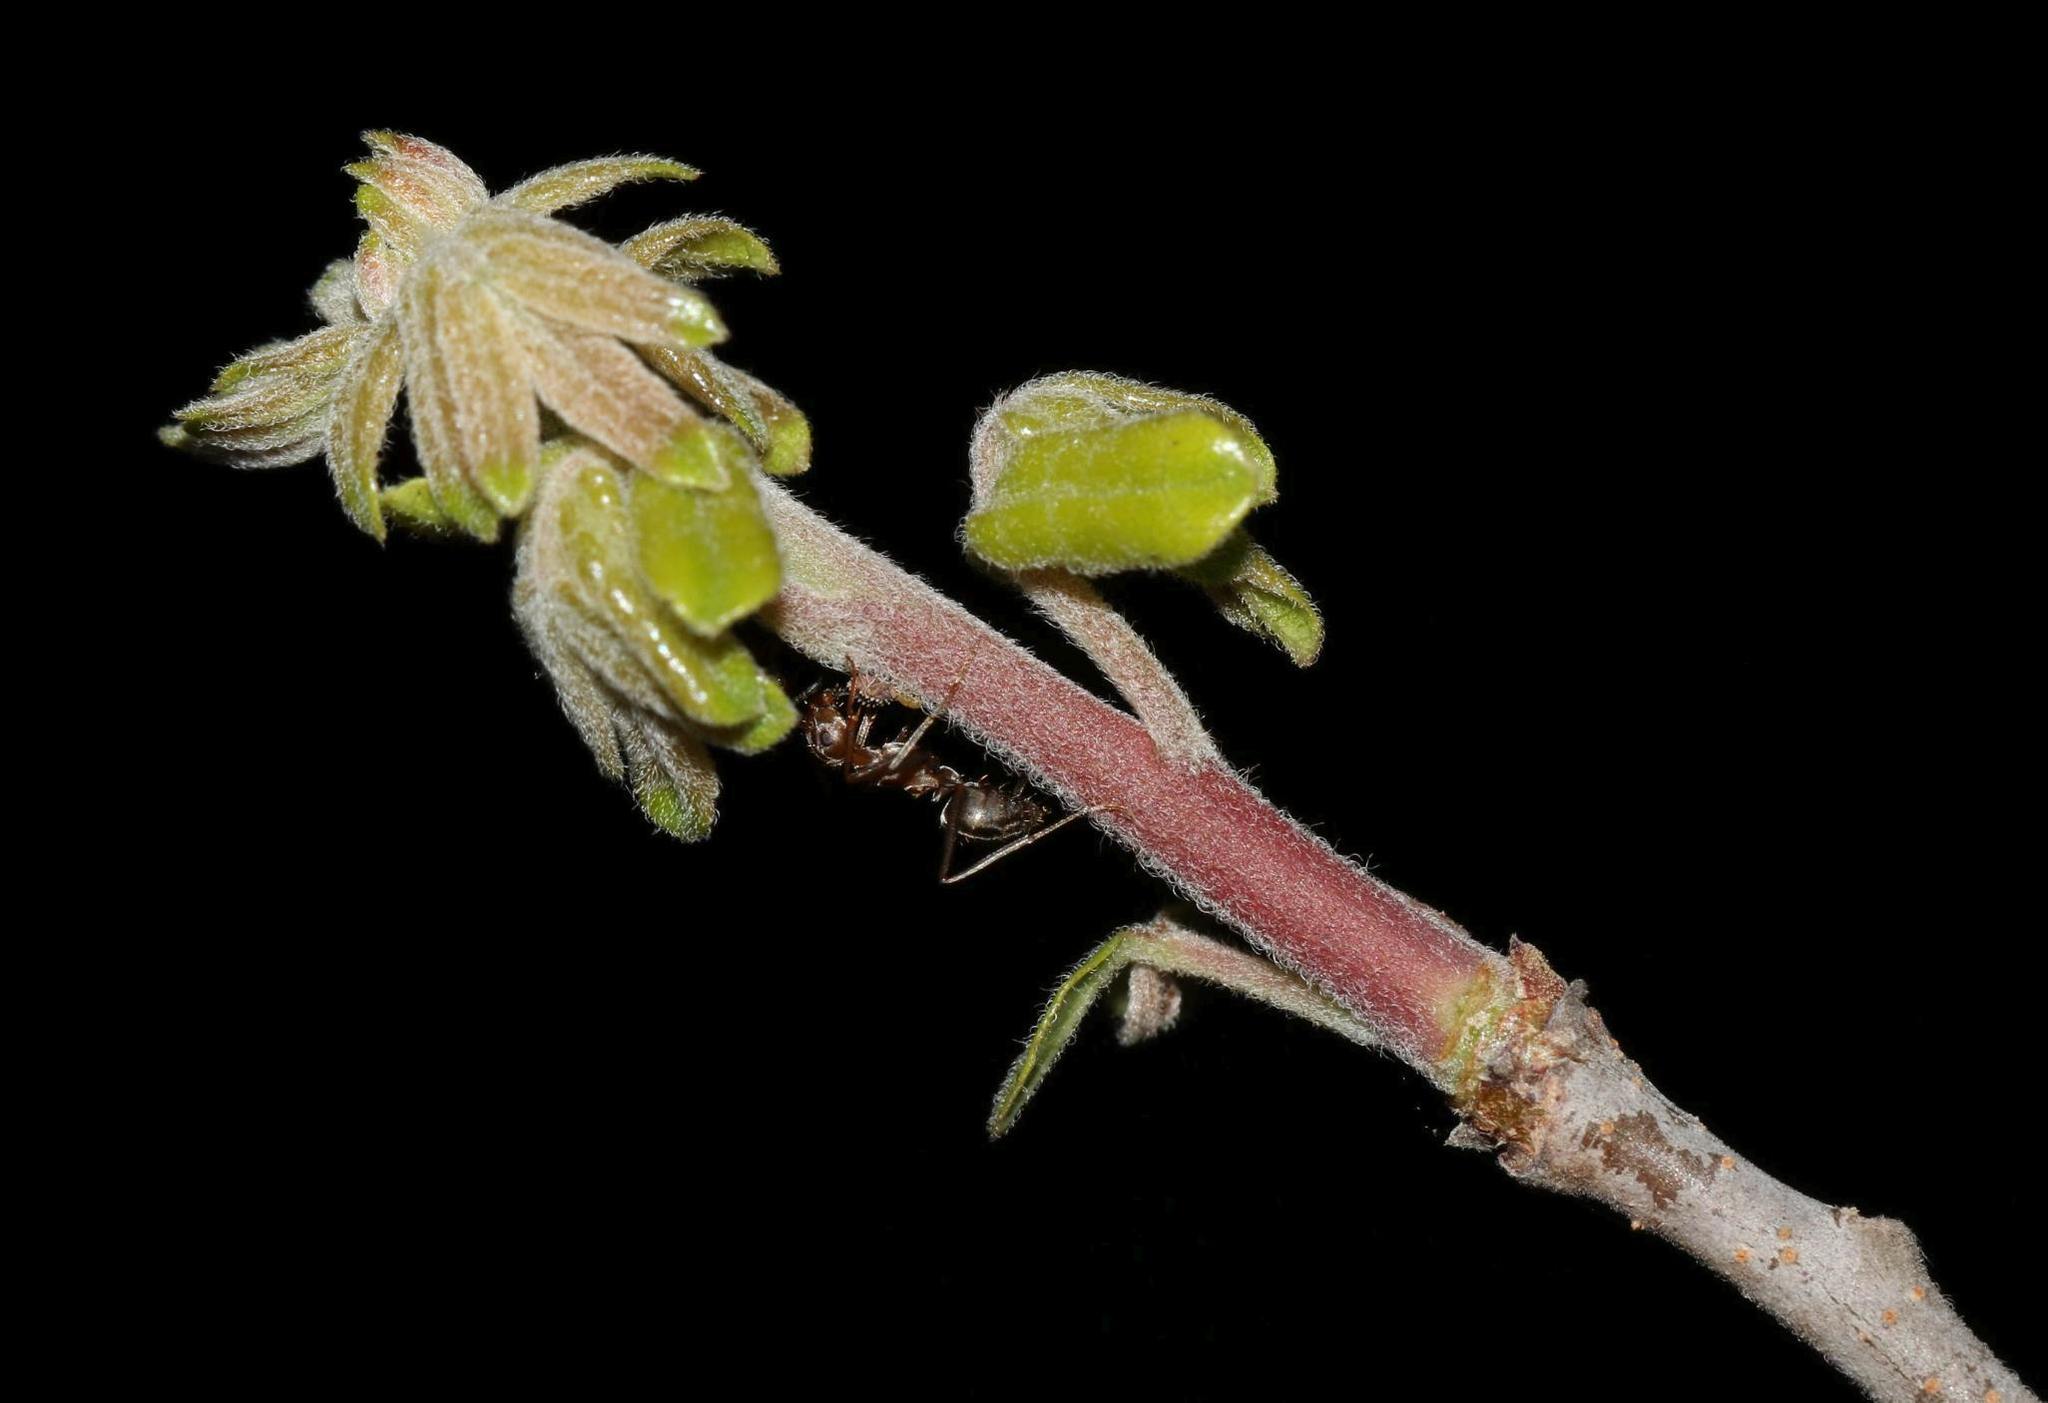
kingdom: Animalia
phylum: Arthropoda
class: Insecta
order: Hymenoptera
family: Formicidae
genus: Anoplolepis
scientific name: Anoplolepis custodiens
